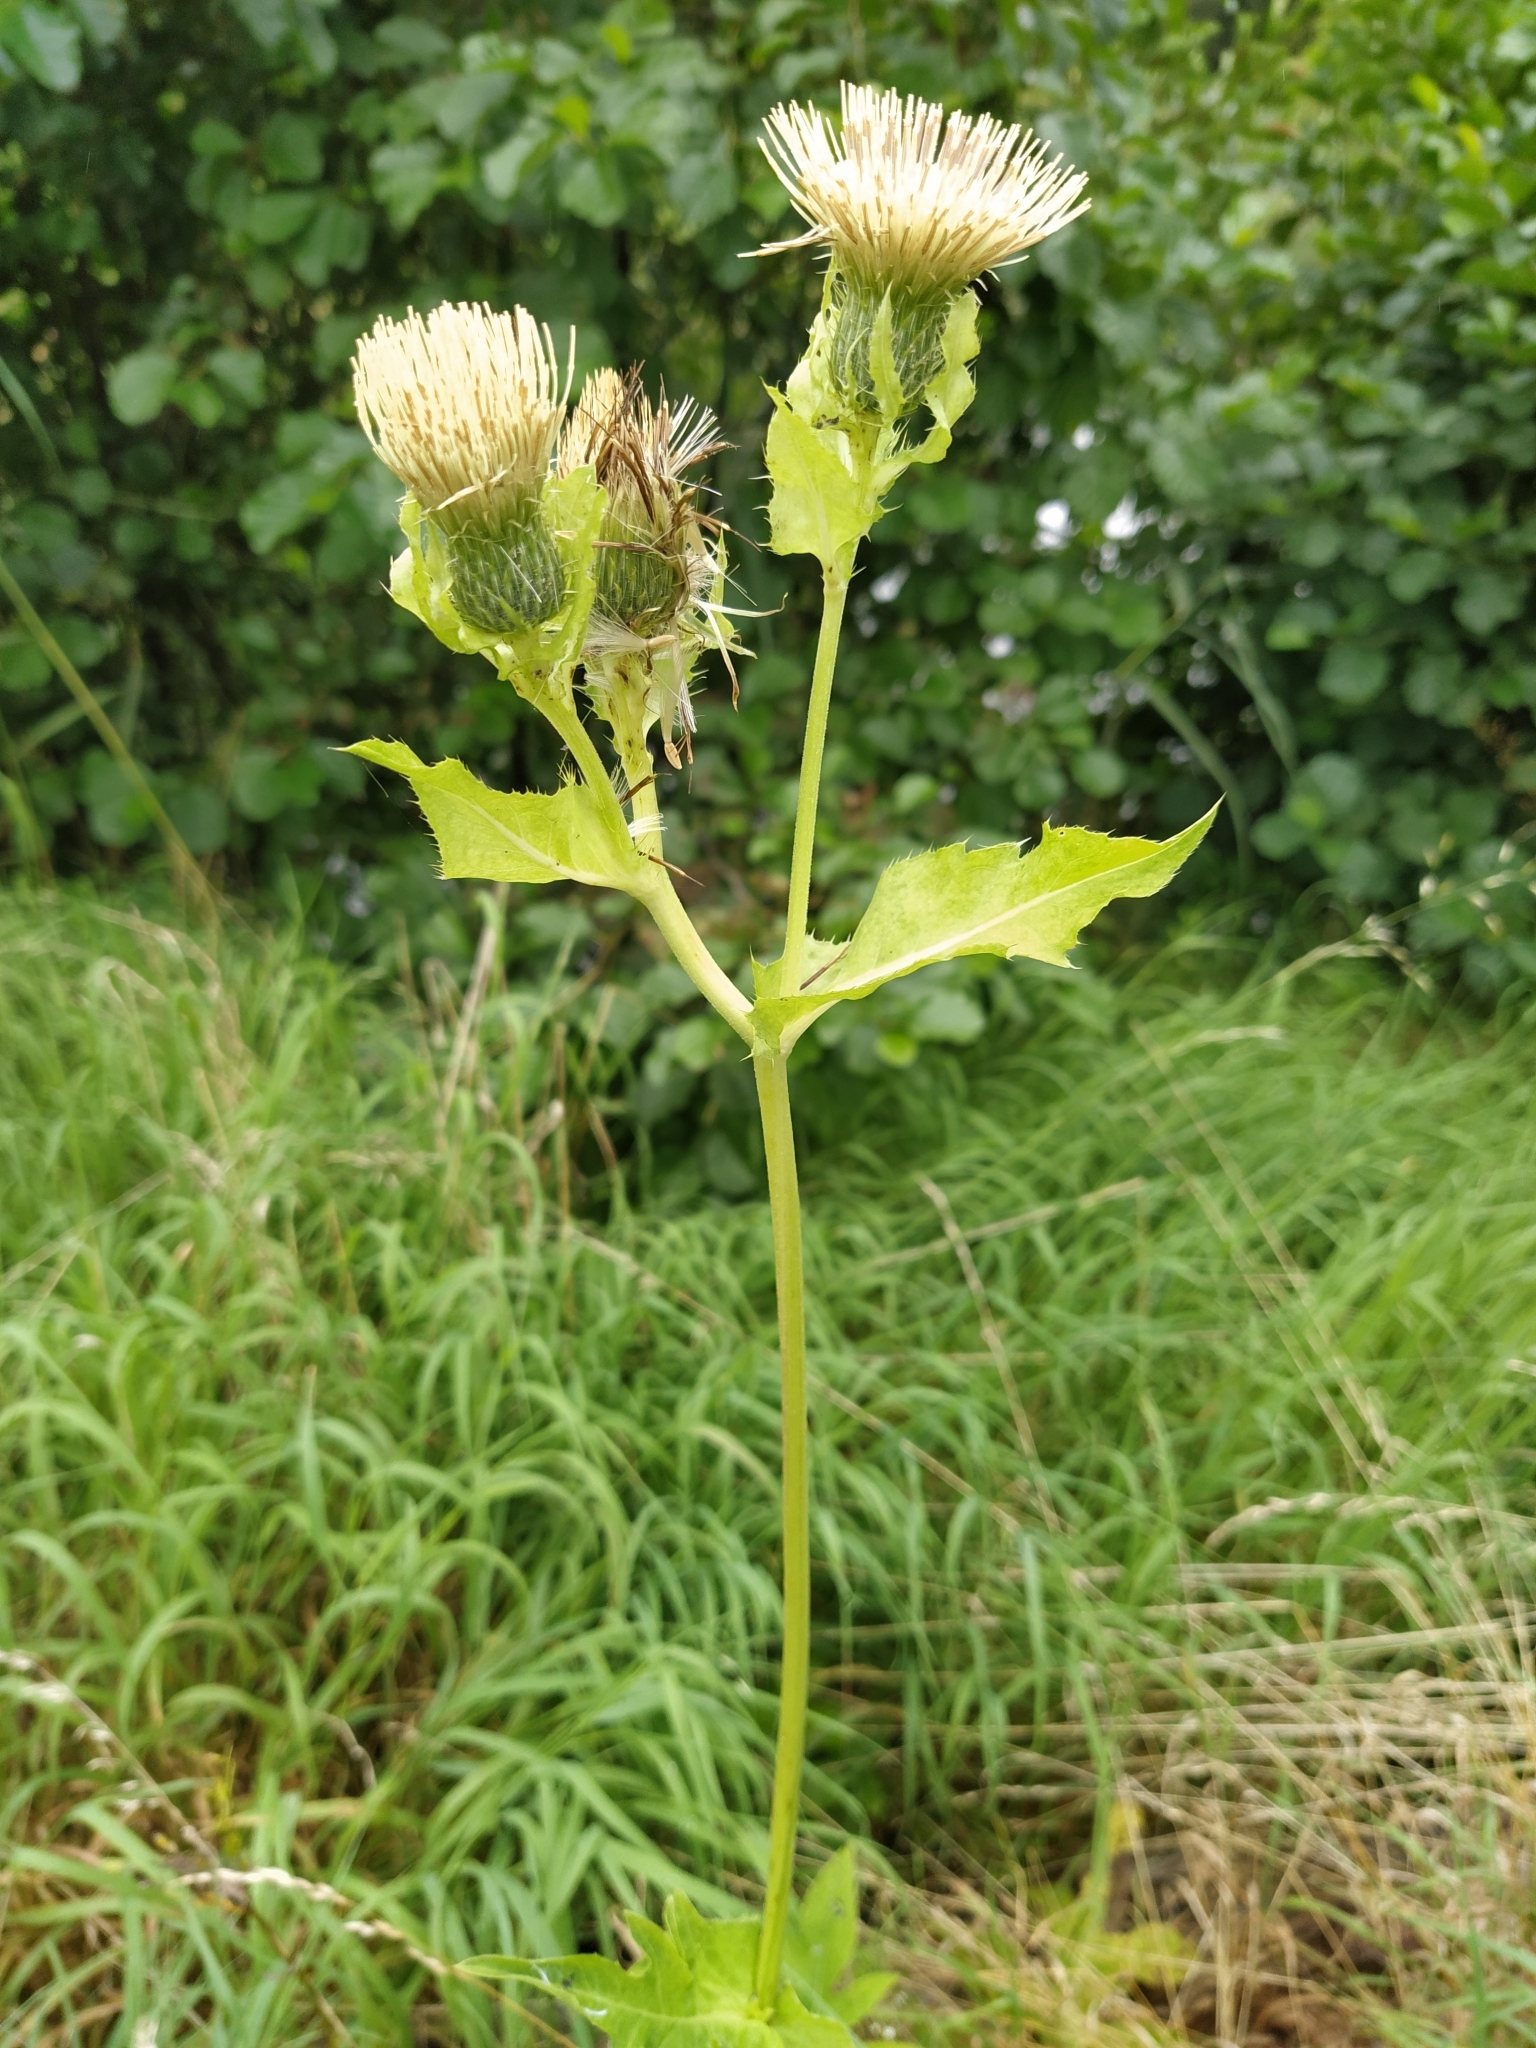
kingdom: Plantae
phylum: Tracheophyta
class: Magnoliopsida
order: Asterales
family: Asteraceae
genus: Cirsium
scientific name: Cirsium oleraceum
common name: Cabbage thistle
